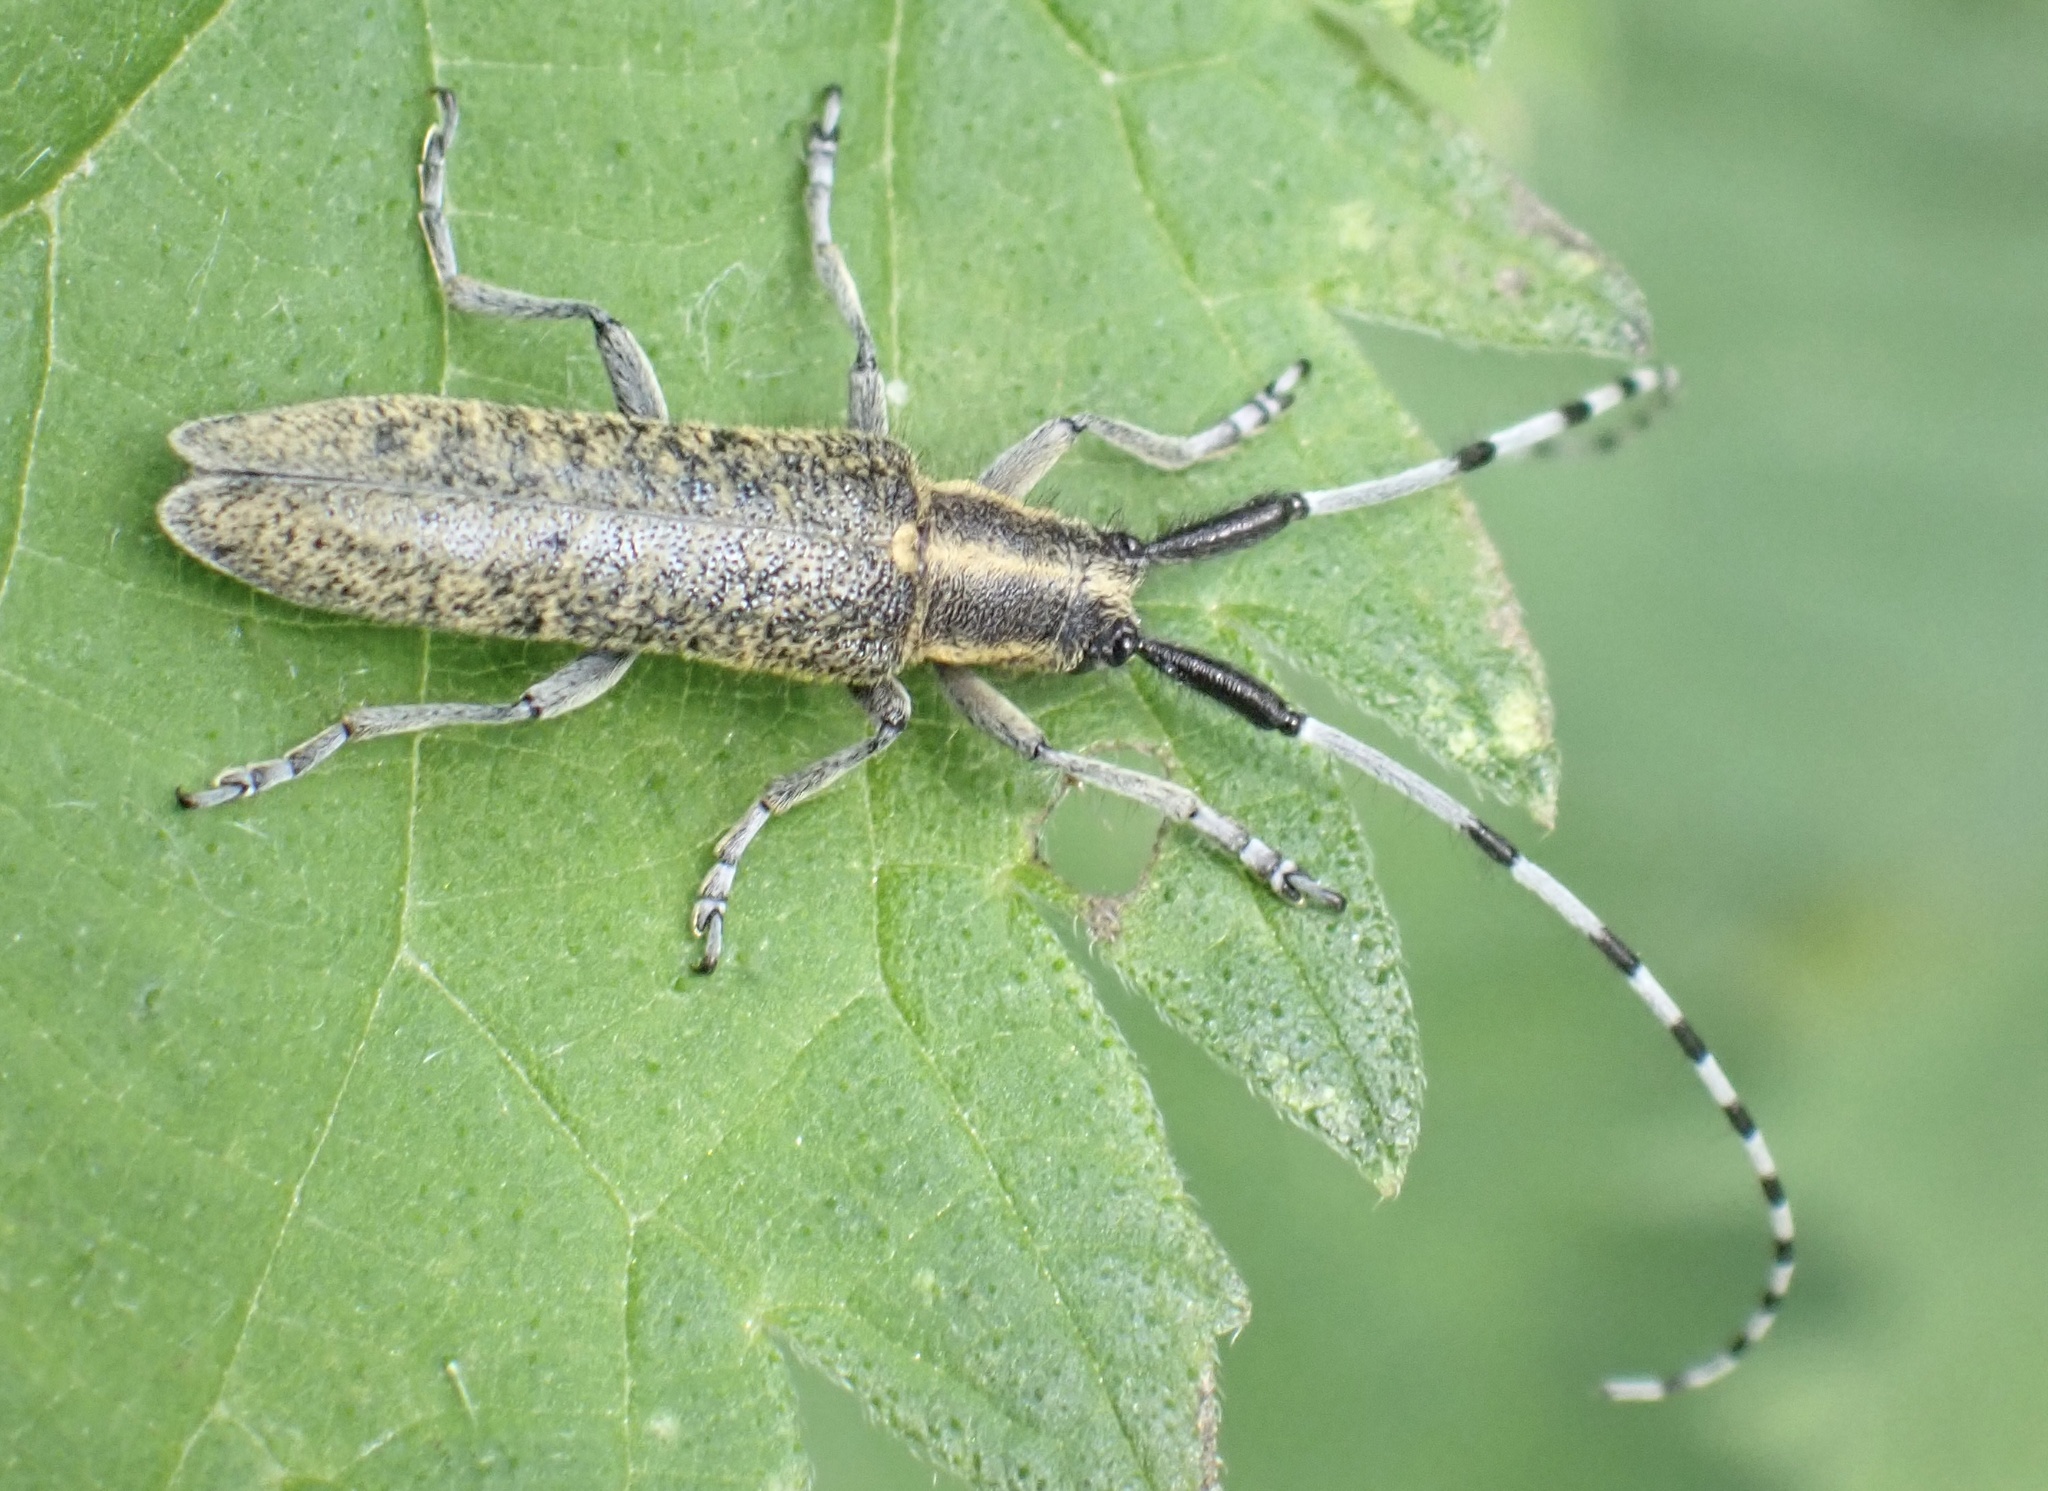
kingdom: Animalia
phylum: Arthropoda
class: Insecta
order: Coleoptera
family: Cerambycidae
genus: Agapanthia
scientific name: Agapanthia villosoviridescens
